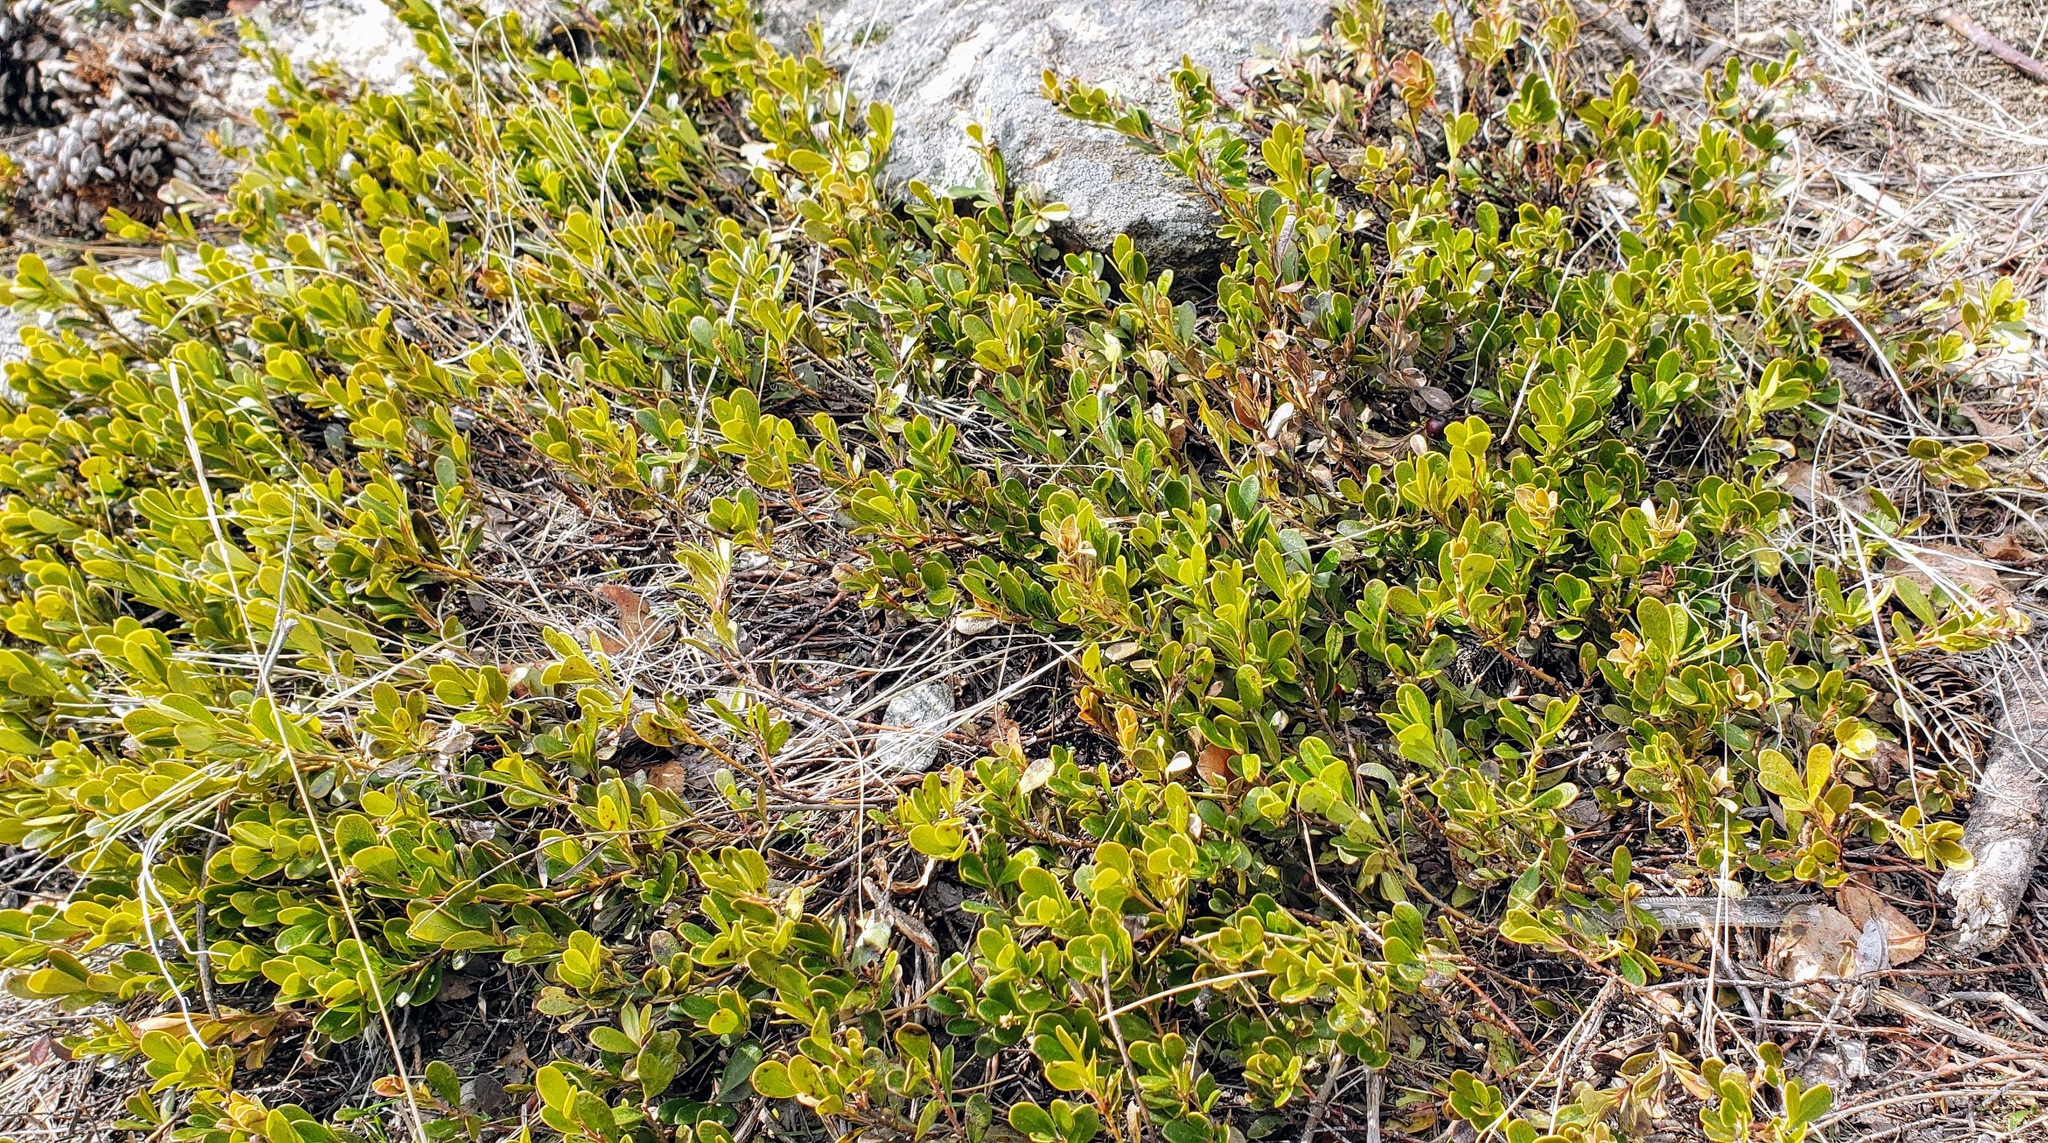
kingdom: Plantae
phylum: Tracheophyta
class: Magnoliopsida
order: Ericales
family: Ericaceae
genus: Arctostaphylos
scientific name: Arctostaphylos uva-ursi
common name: Bearberry
